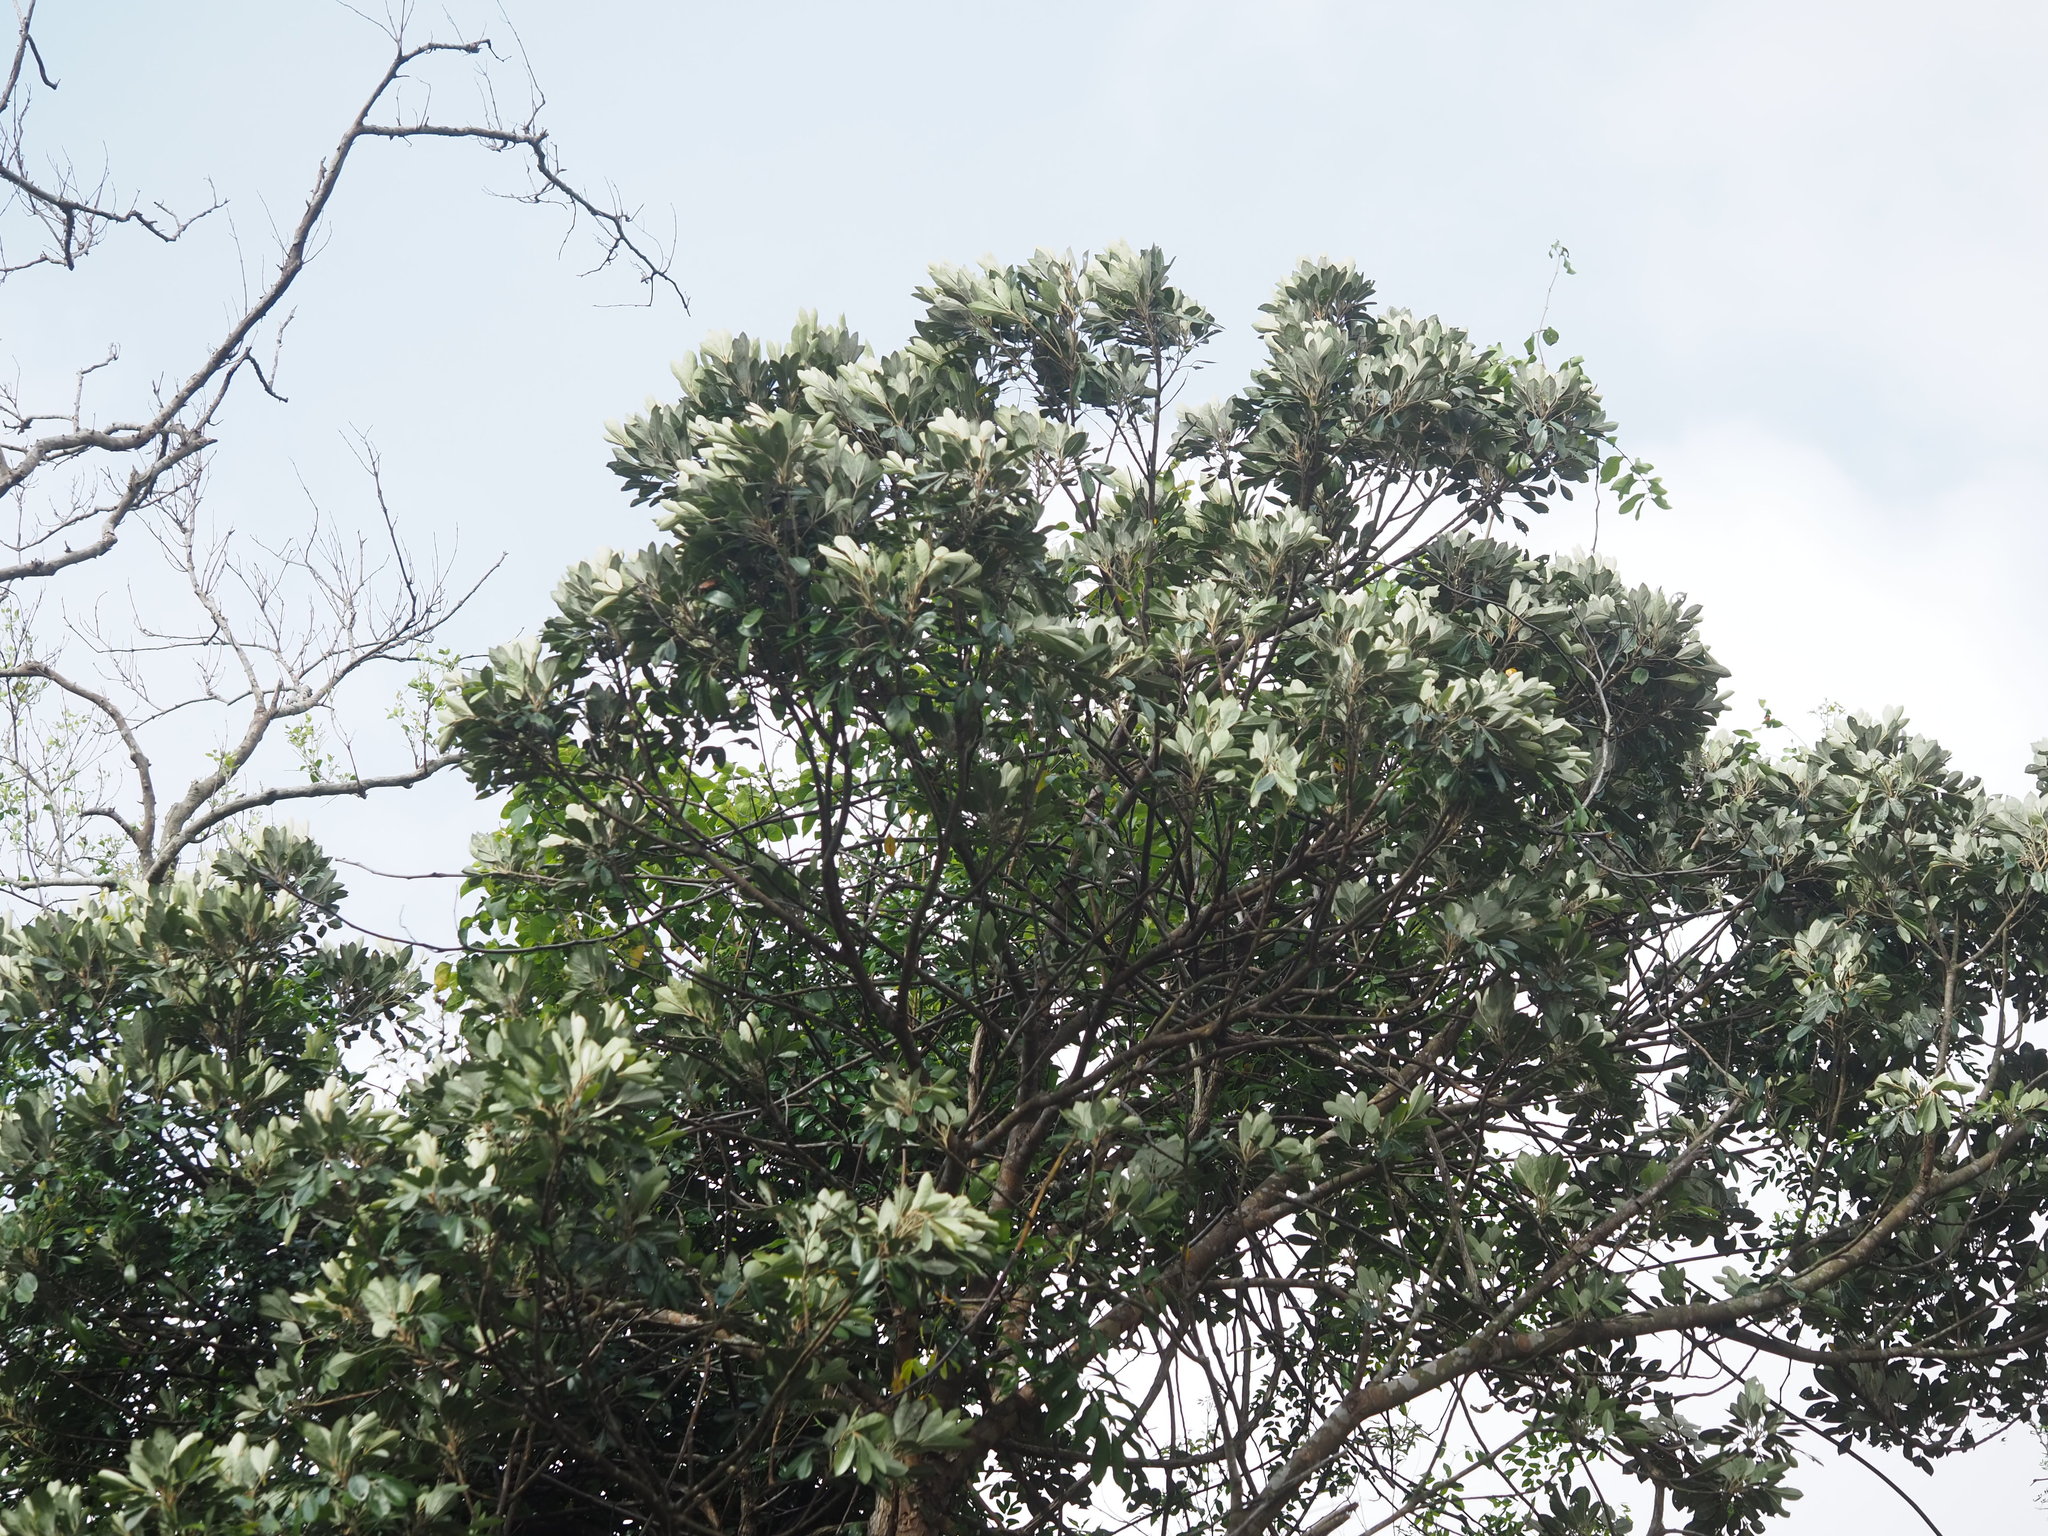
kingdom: Plantae
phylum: Tracheophyta
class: Magnoliopsida
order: Sapindales
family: Meliaceae
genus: Aglaia
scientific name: Aglaia elaeagnoidea
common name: Droopyleaf
